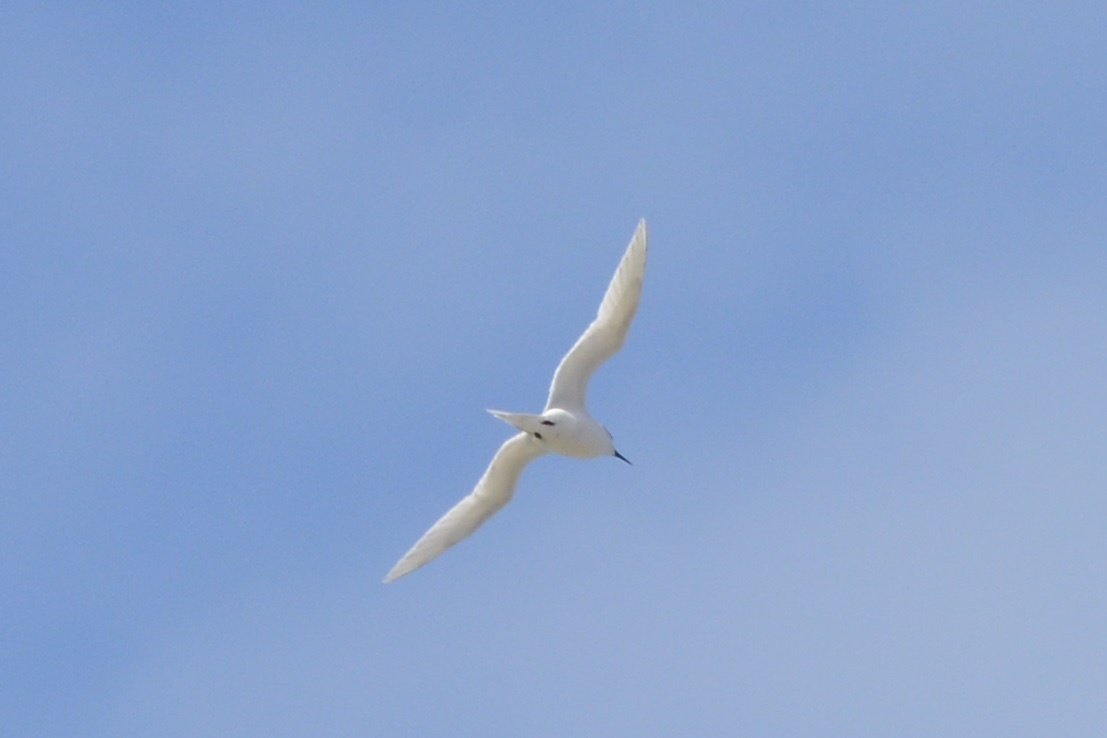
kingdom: Animalia
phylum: Chordata
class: Aves
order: Charadriiformes
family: Laridae
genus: Sterna
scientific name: Sterna striata
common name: White-fronted tern
